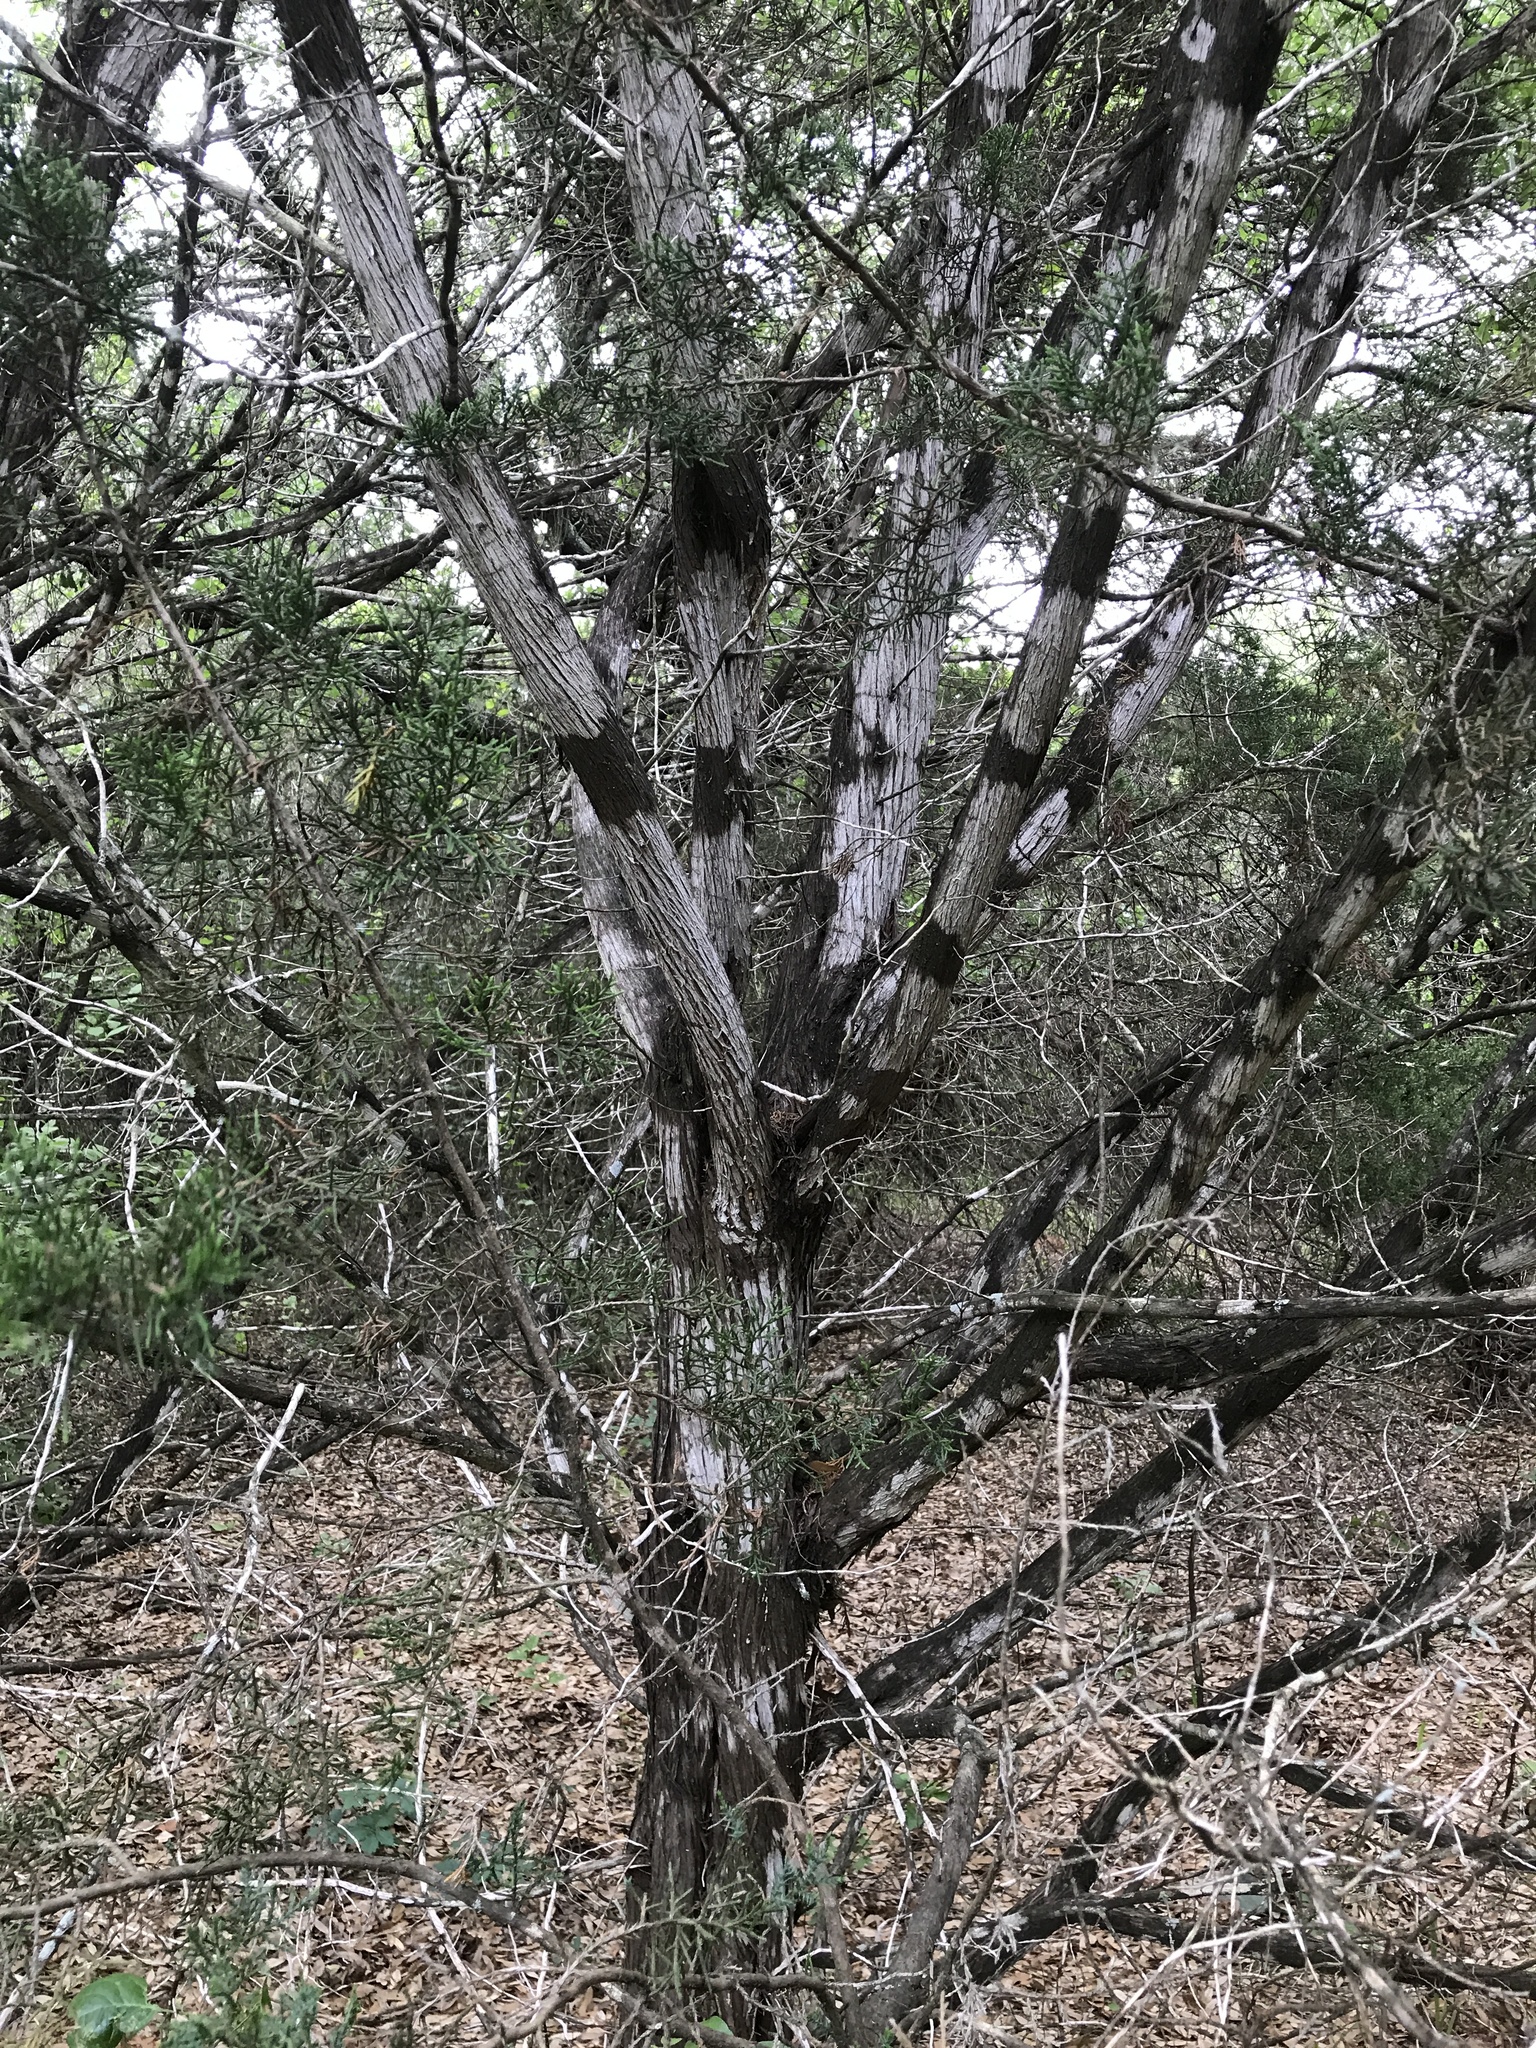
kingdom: Fungi
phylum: Ascomycota
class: Lecanoromycetes
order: Ostropales
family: Stictidaceae
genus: Robergea
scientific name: Robergea
